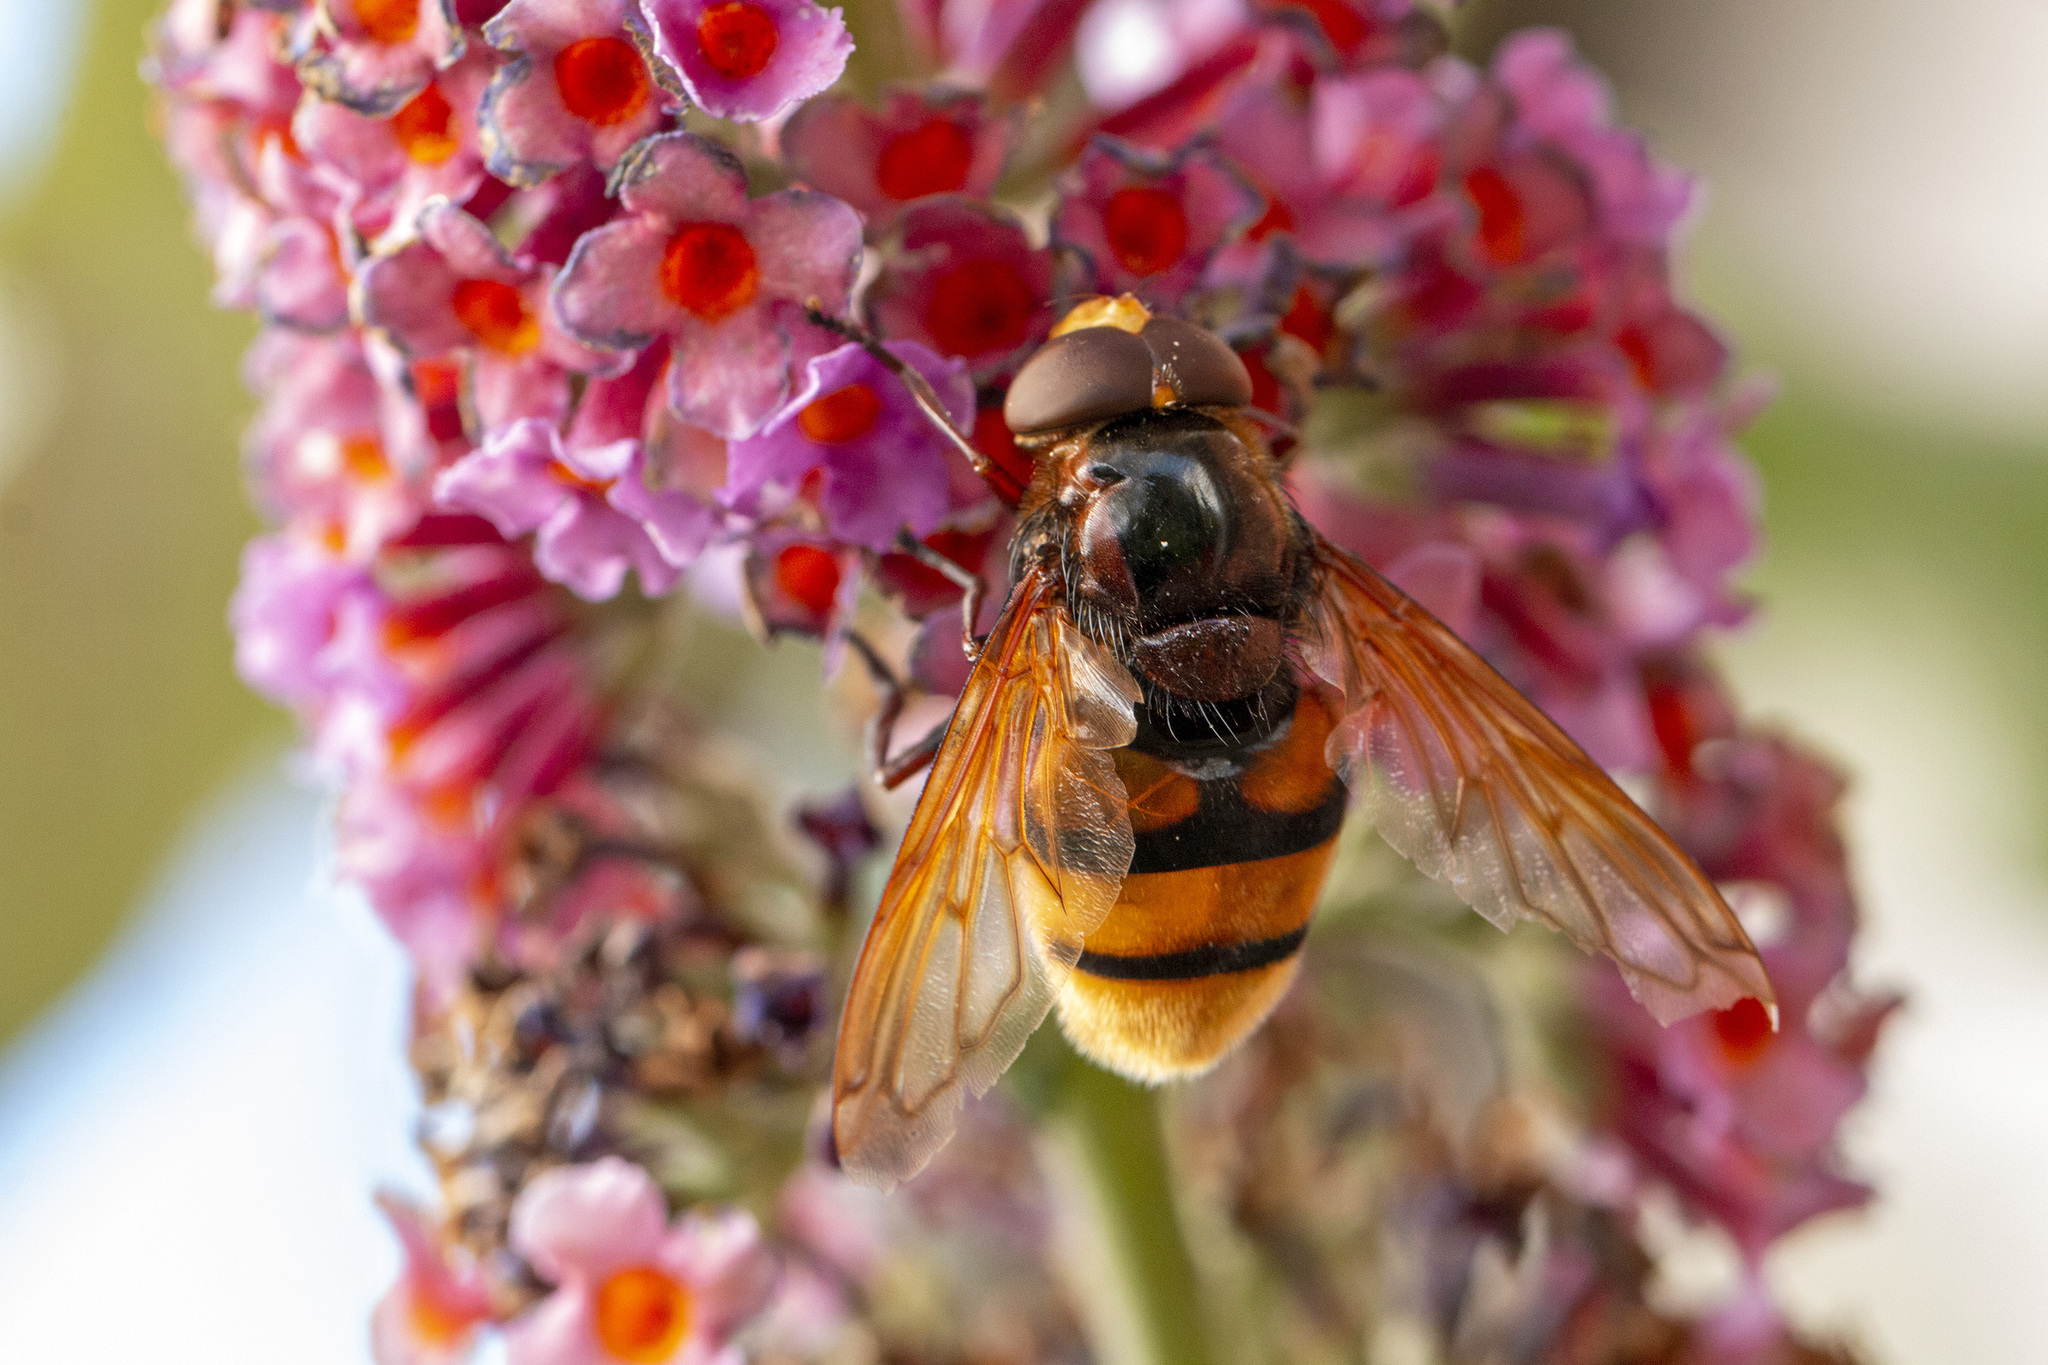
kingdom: Animalia
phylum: Arthropoda
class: Insecta
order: Diptera
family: Syrphidae
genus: Volucella
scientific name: Volucella zonaria
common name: Hornet hoverfly
